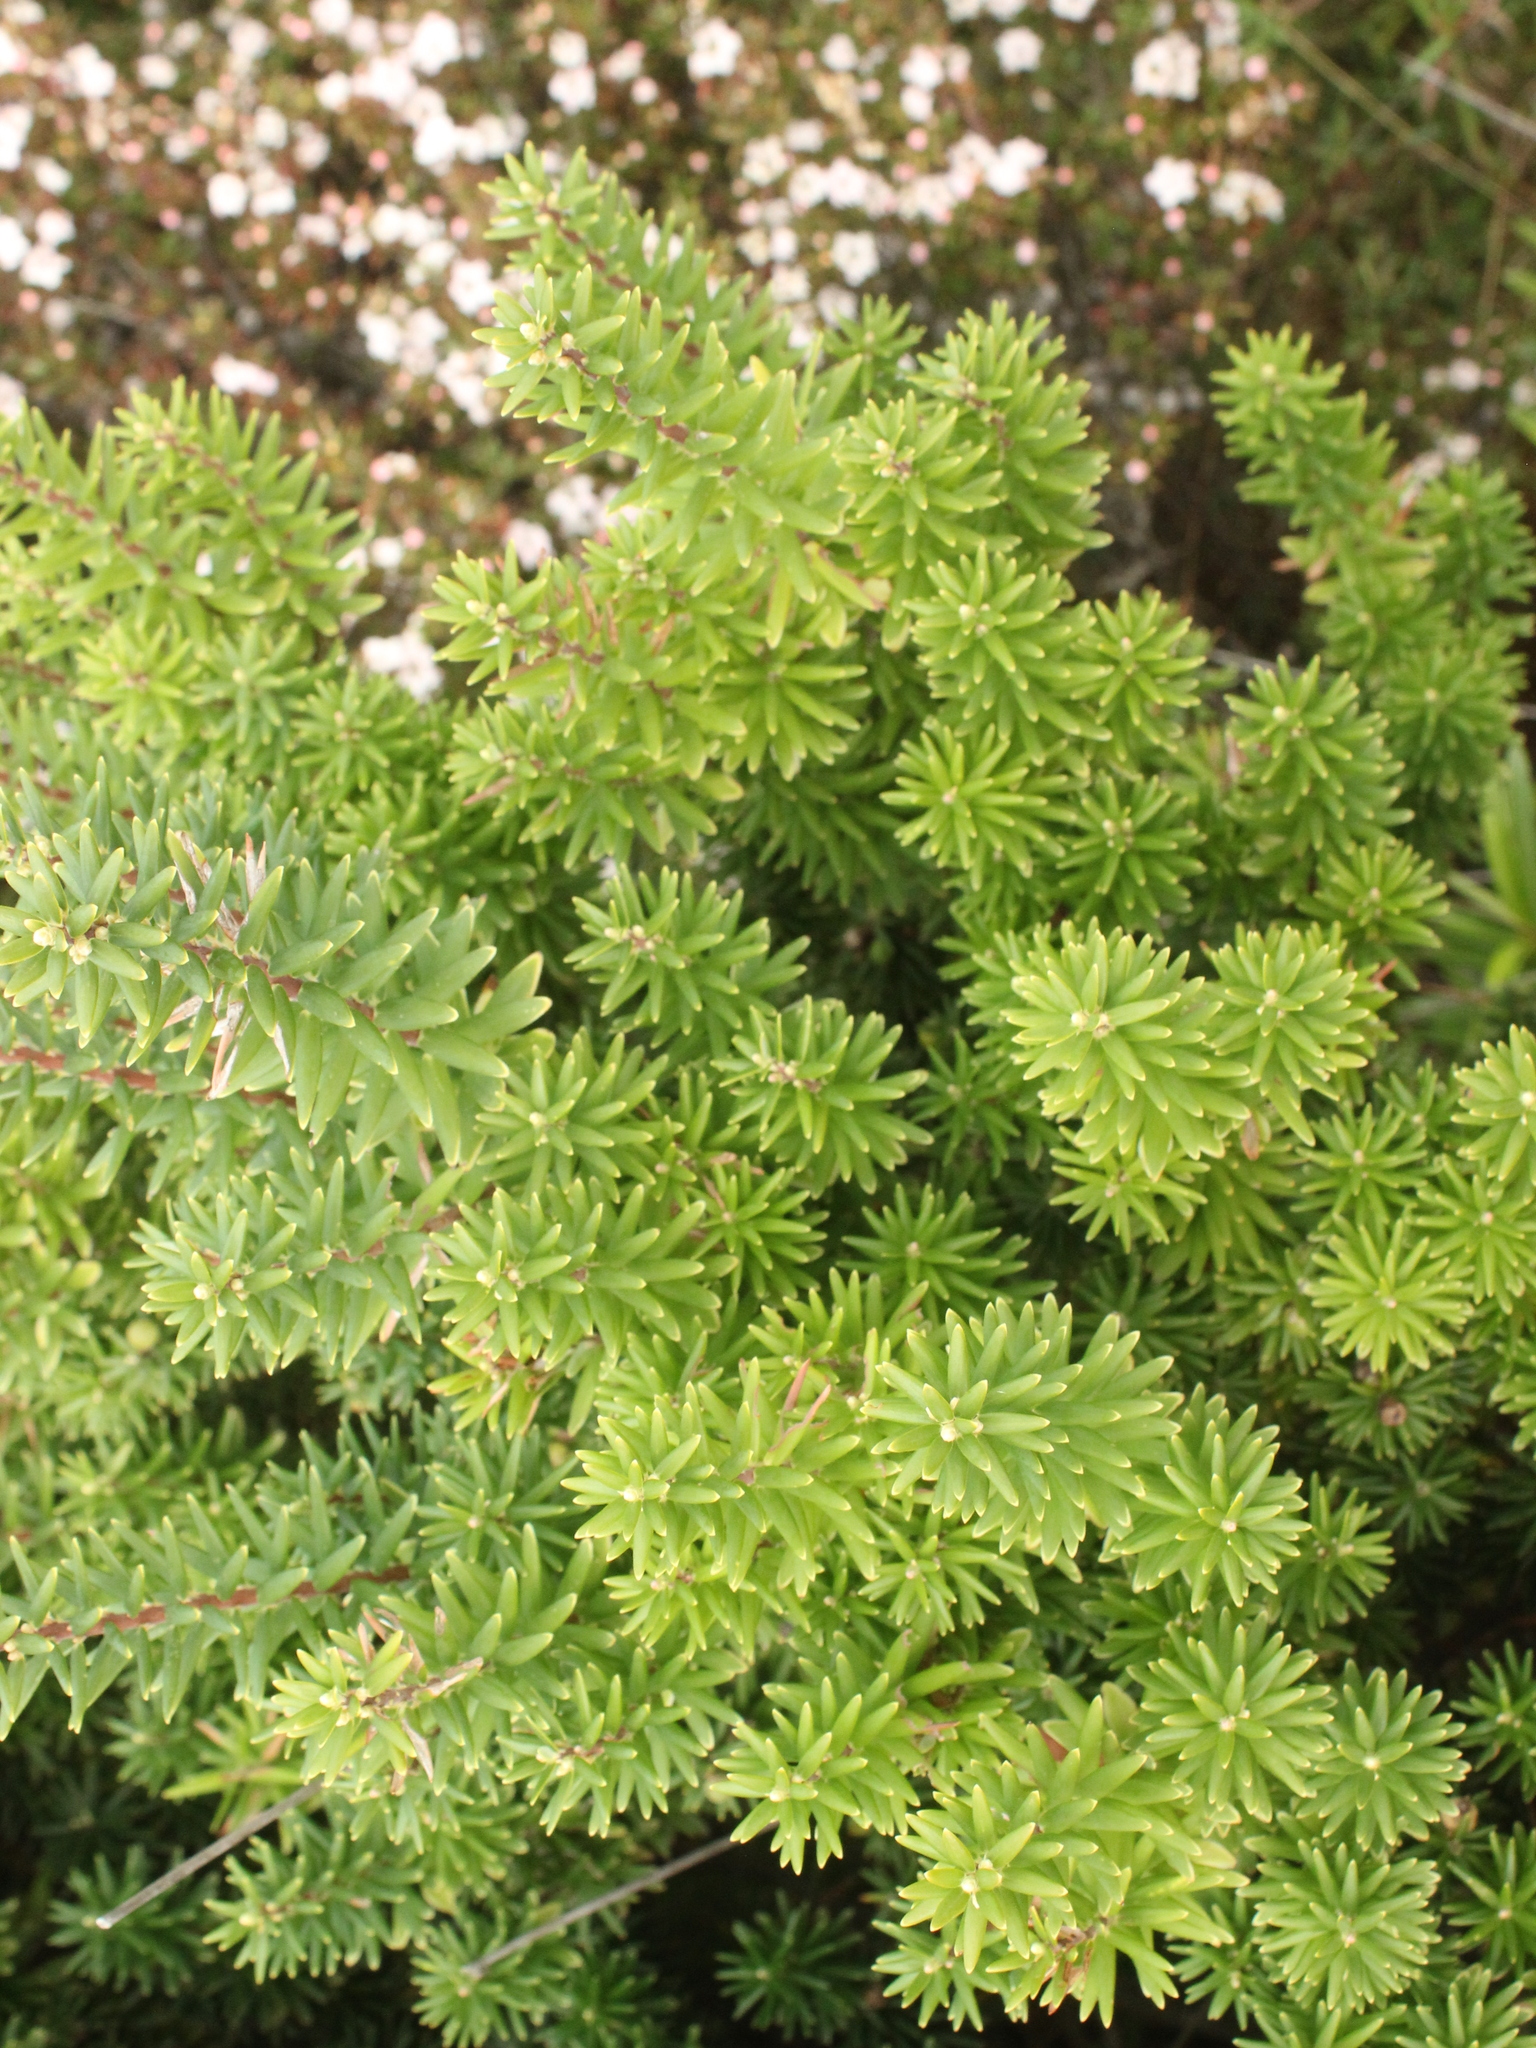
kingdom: Plantae
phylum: Tracheophyta
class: Magnoliopsida
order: Ericales
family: Ericaceae
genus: Leptecophylla
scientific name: Leptecophylla robusta
